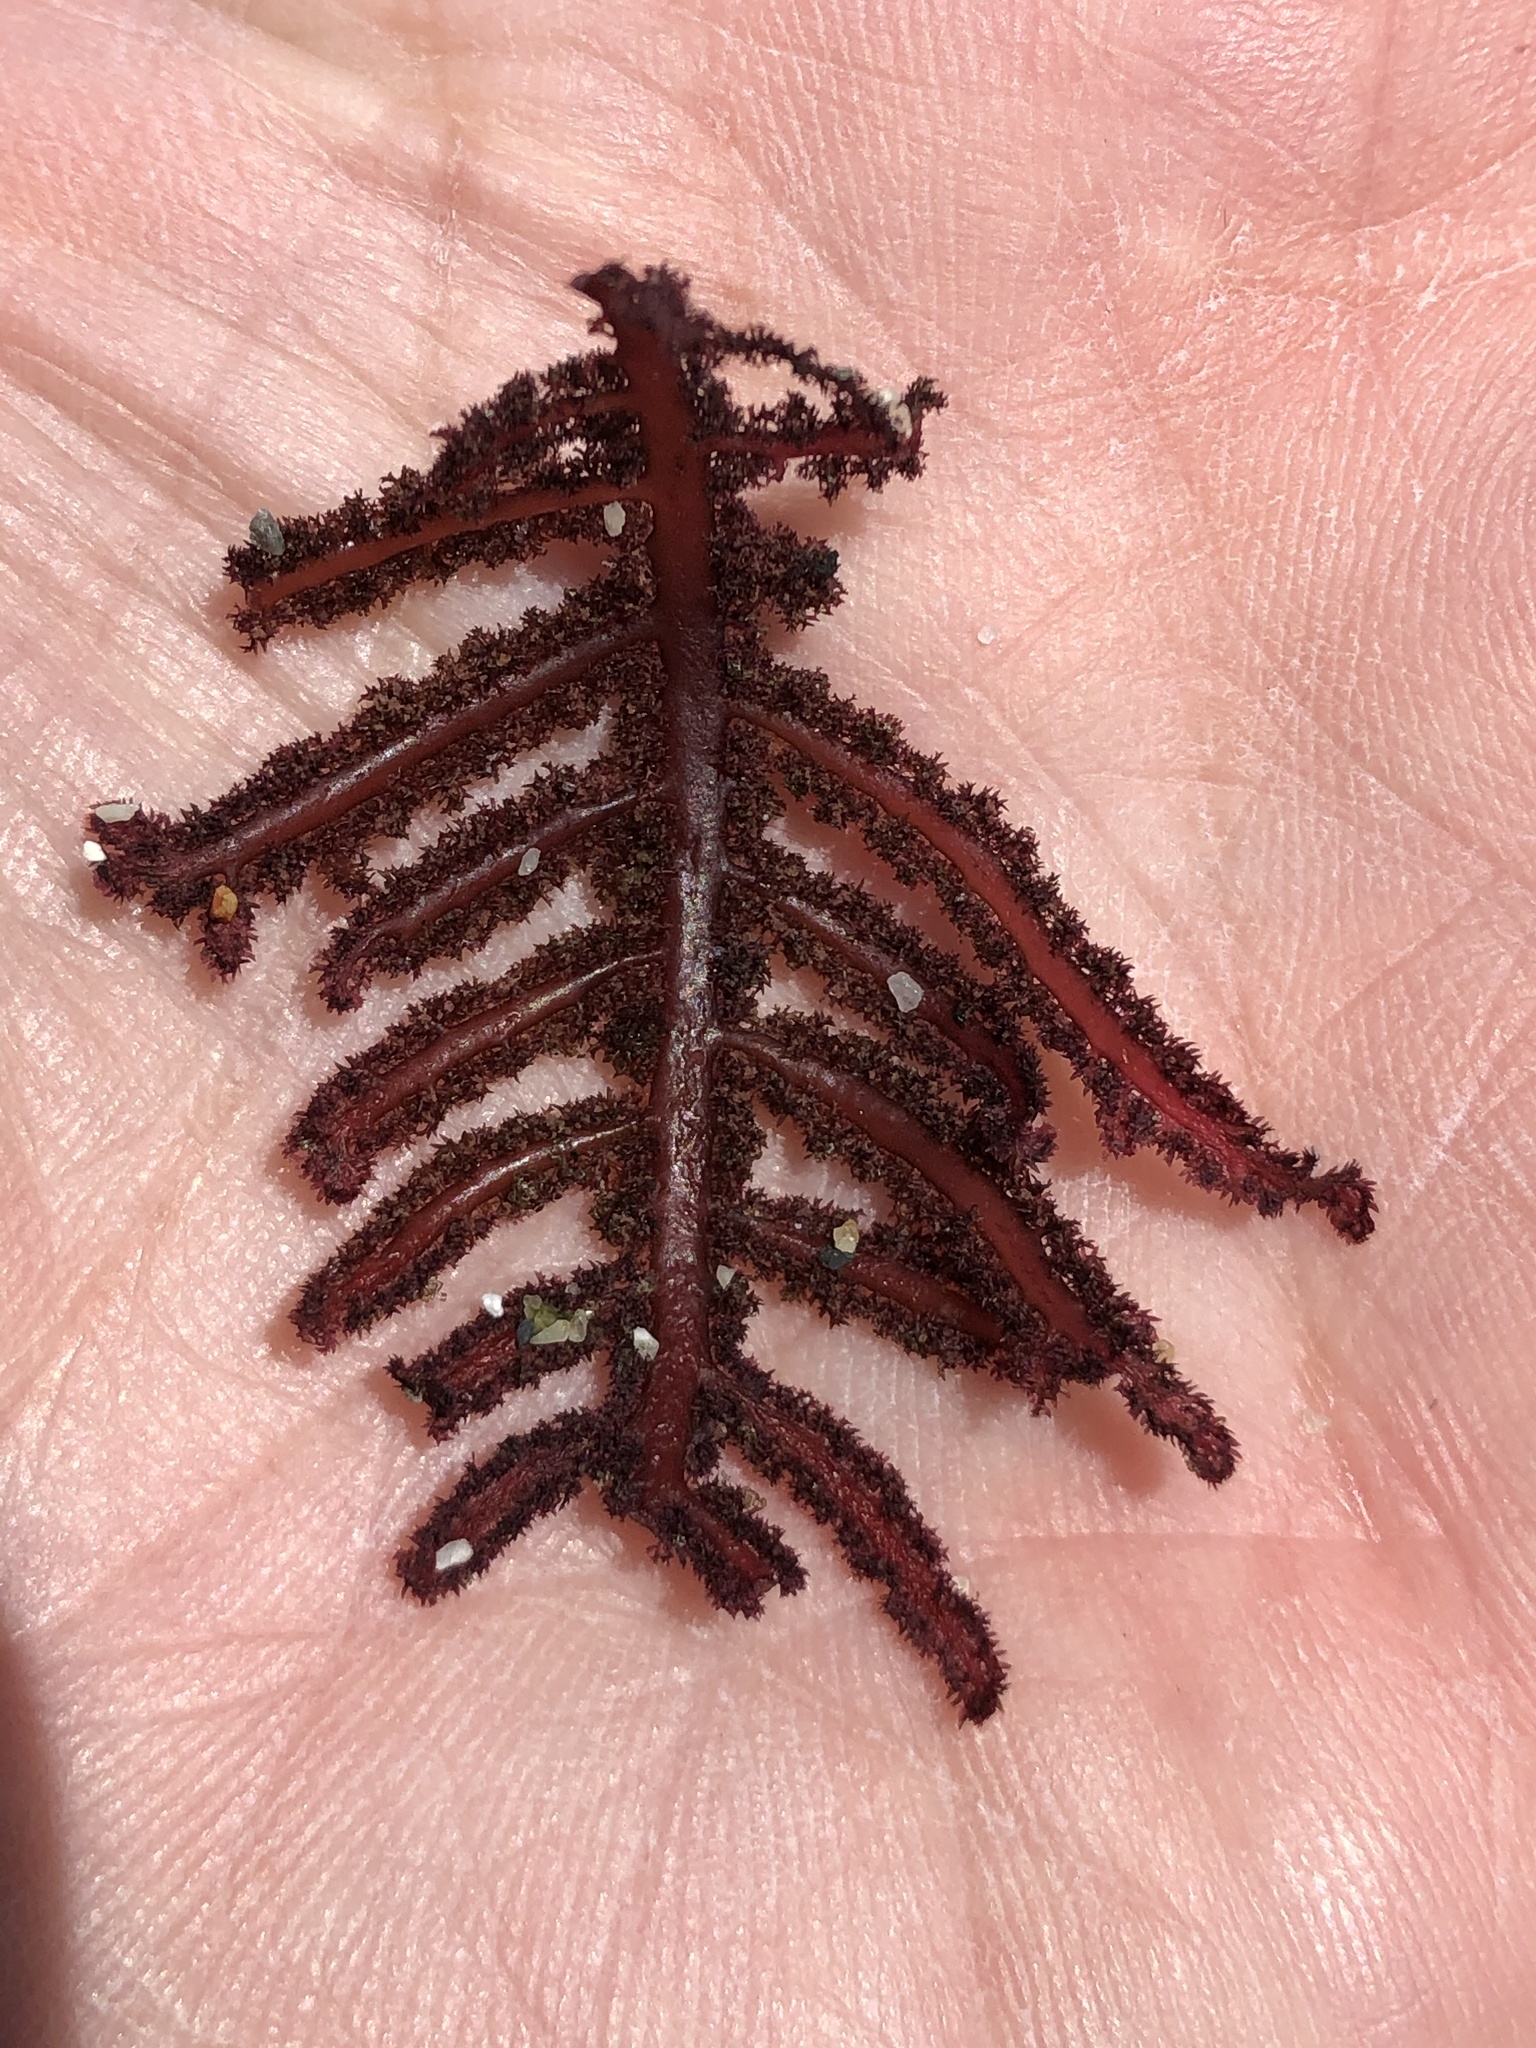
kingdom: Plantae
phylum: Rhodophyta
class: Florideophyceae
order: Ceramiales
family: Wrangeliaceae
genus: Neoptilota
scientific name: Neoptilota densa
